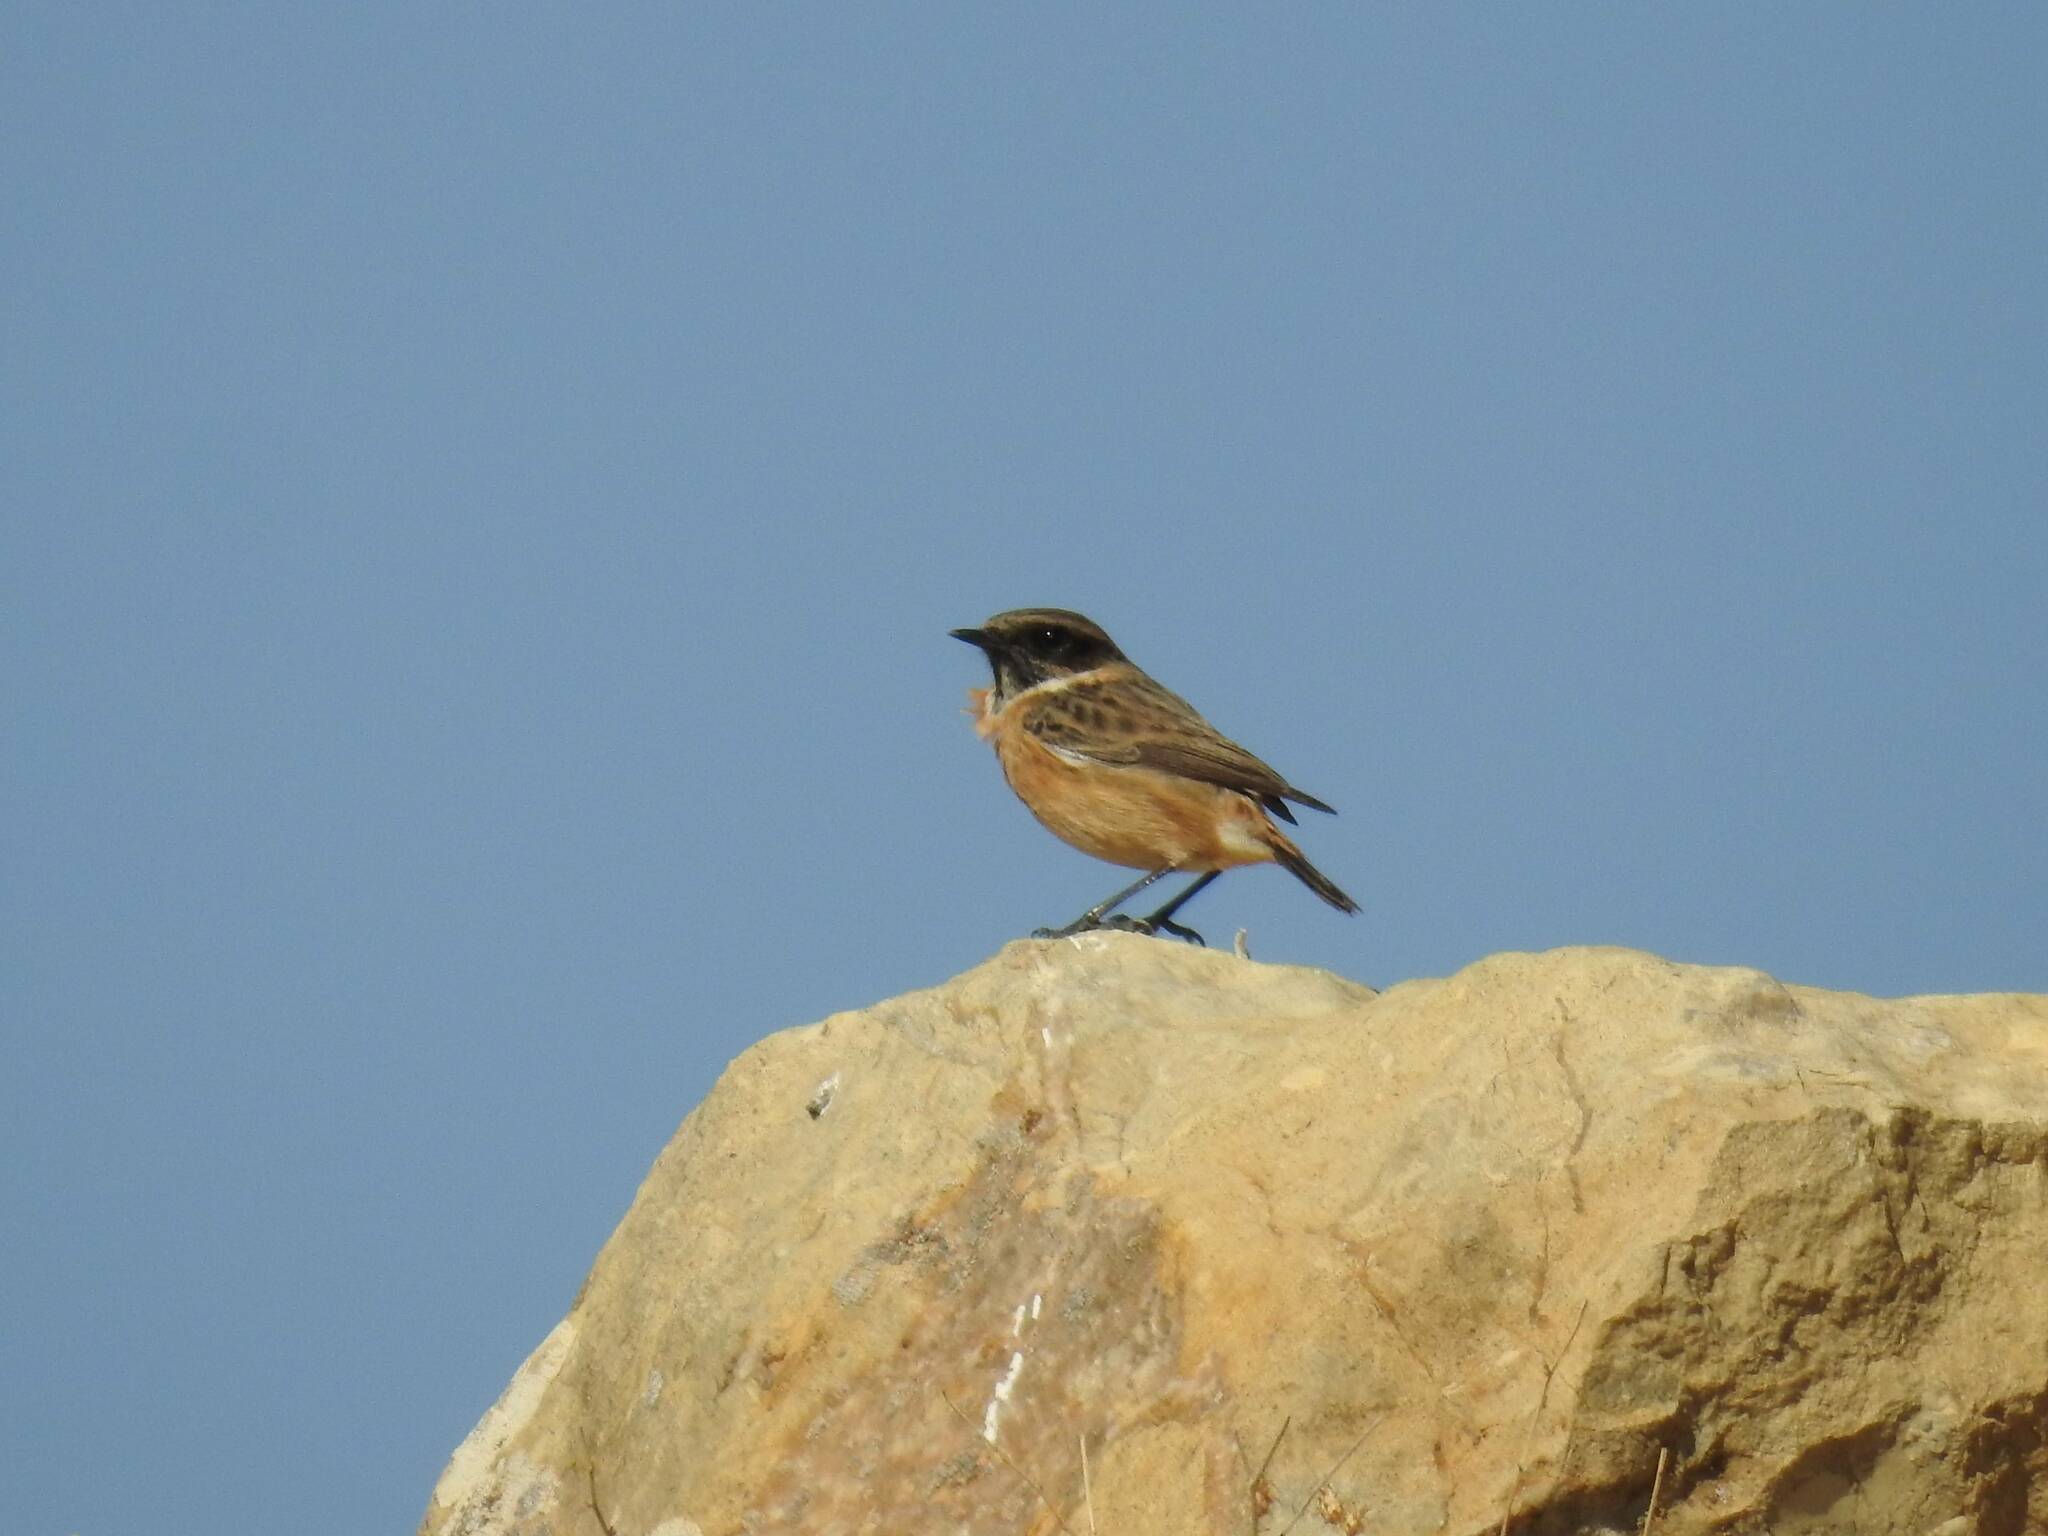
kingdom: Animalia
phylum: Chordata
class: Aves
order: Passeriformes
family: Muscicapidae
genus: Saxicola
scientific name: Saxicola rubicola
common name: European stonechat
